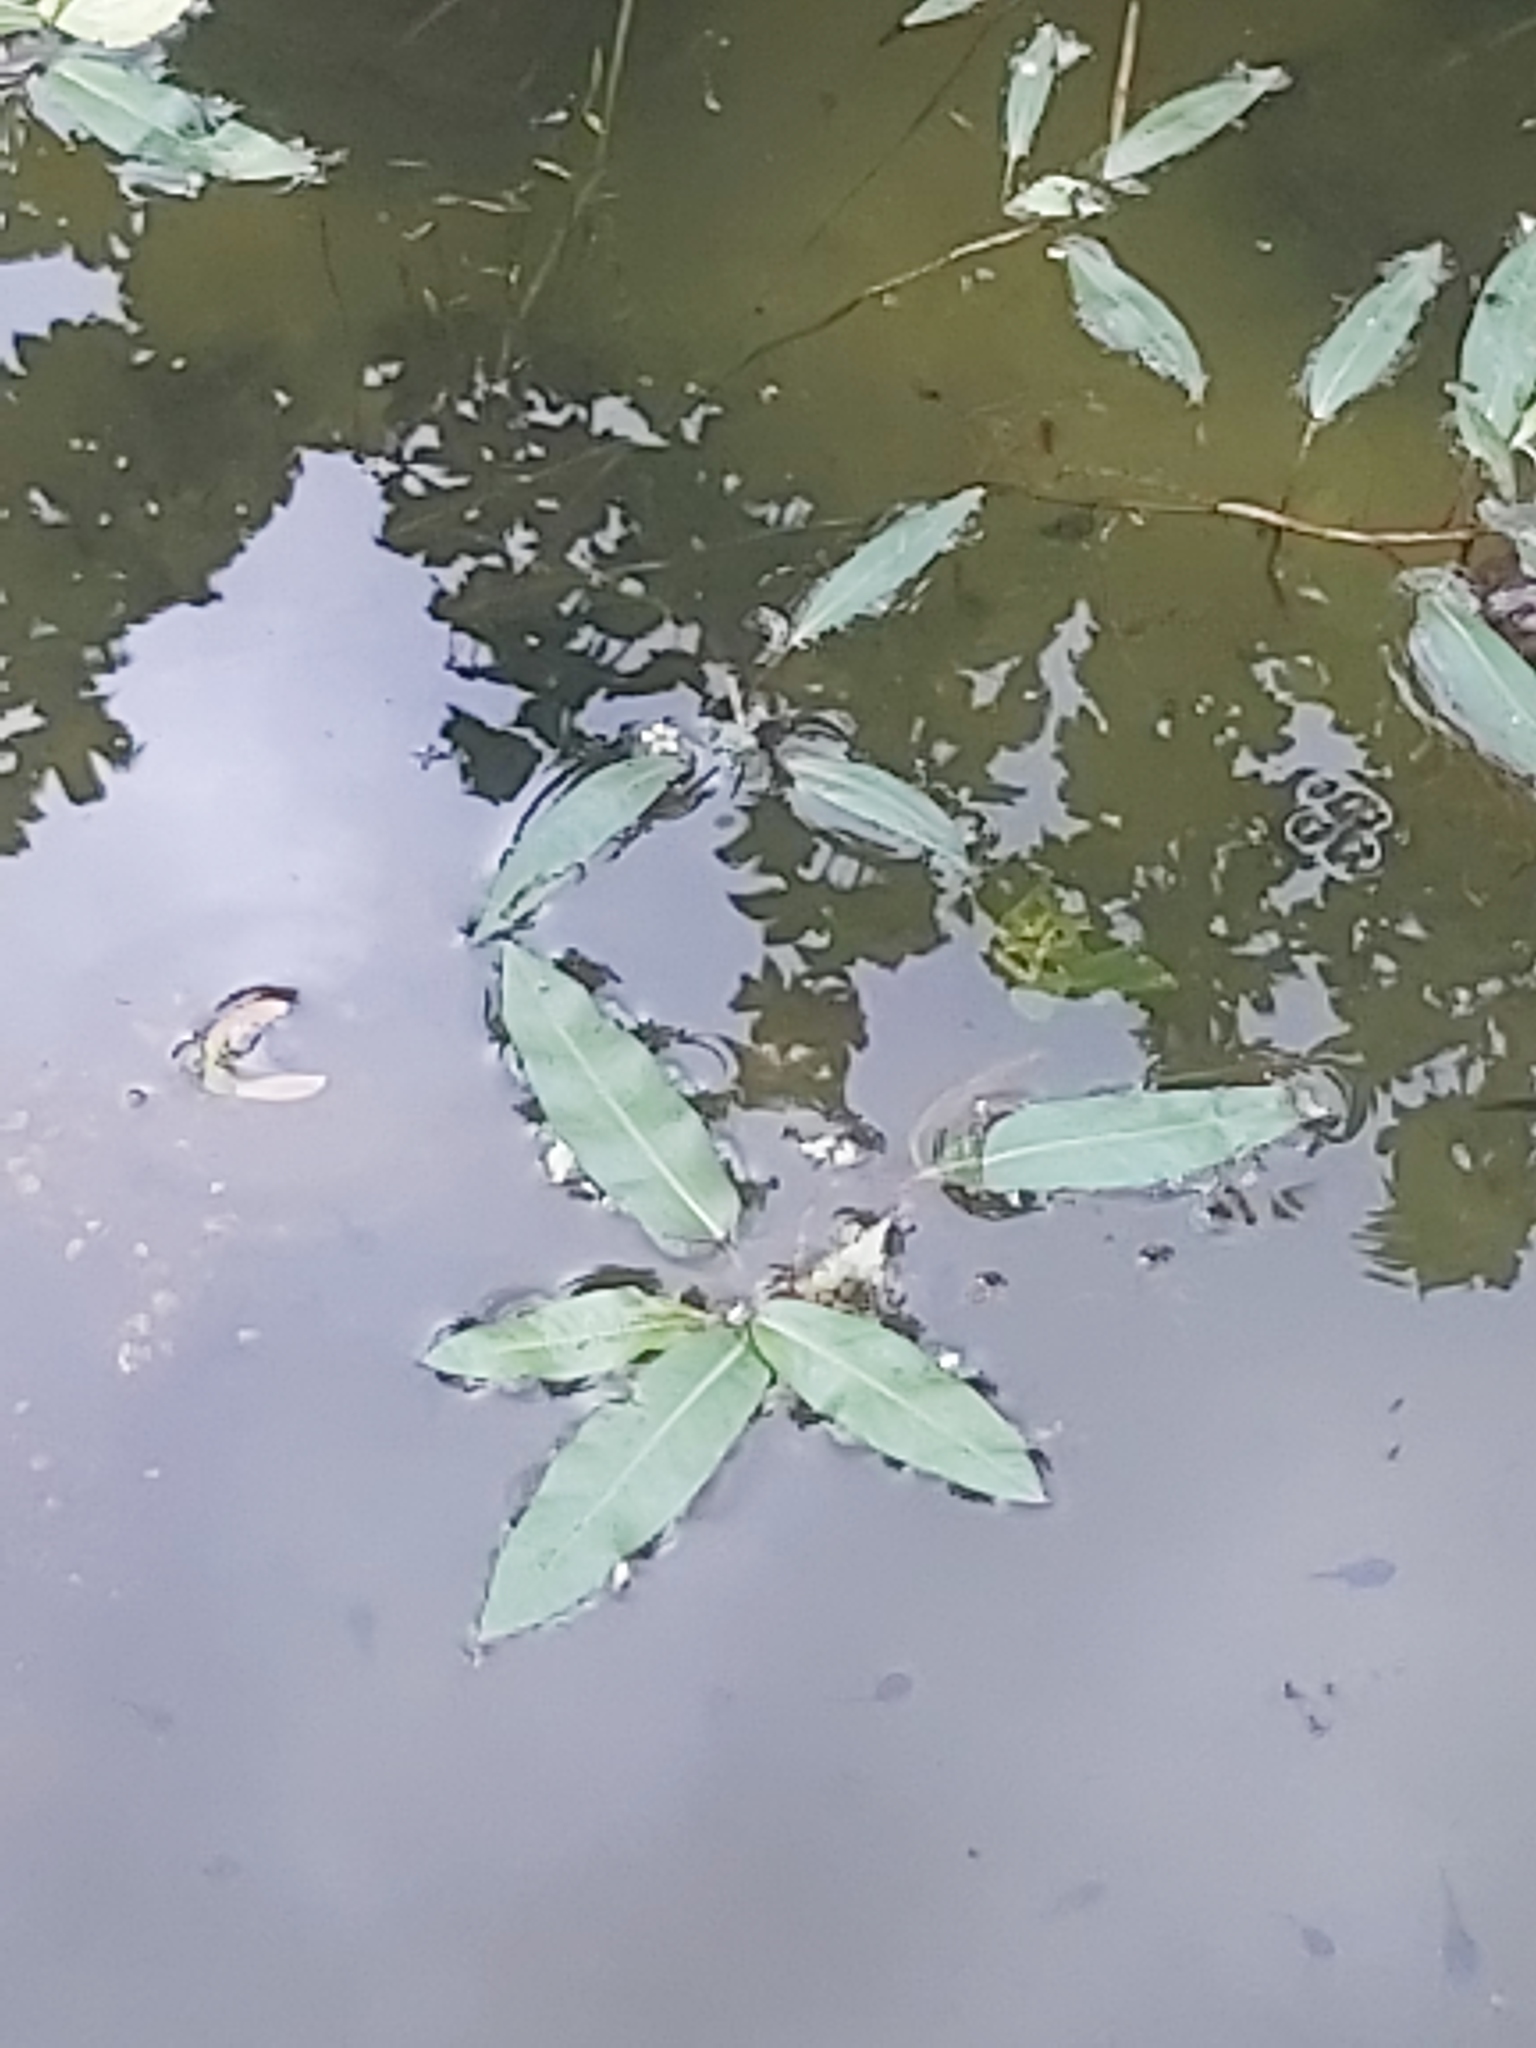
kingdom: Plantae
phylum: Tracheophyta
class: Magnoliopsida
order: Caryophyllales
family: Polygonaceae
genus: Persicaria
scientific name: Persicaria amphibia
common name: Amphibious bistort
